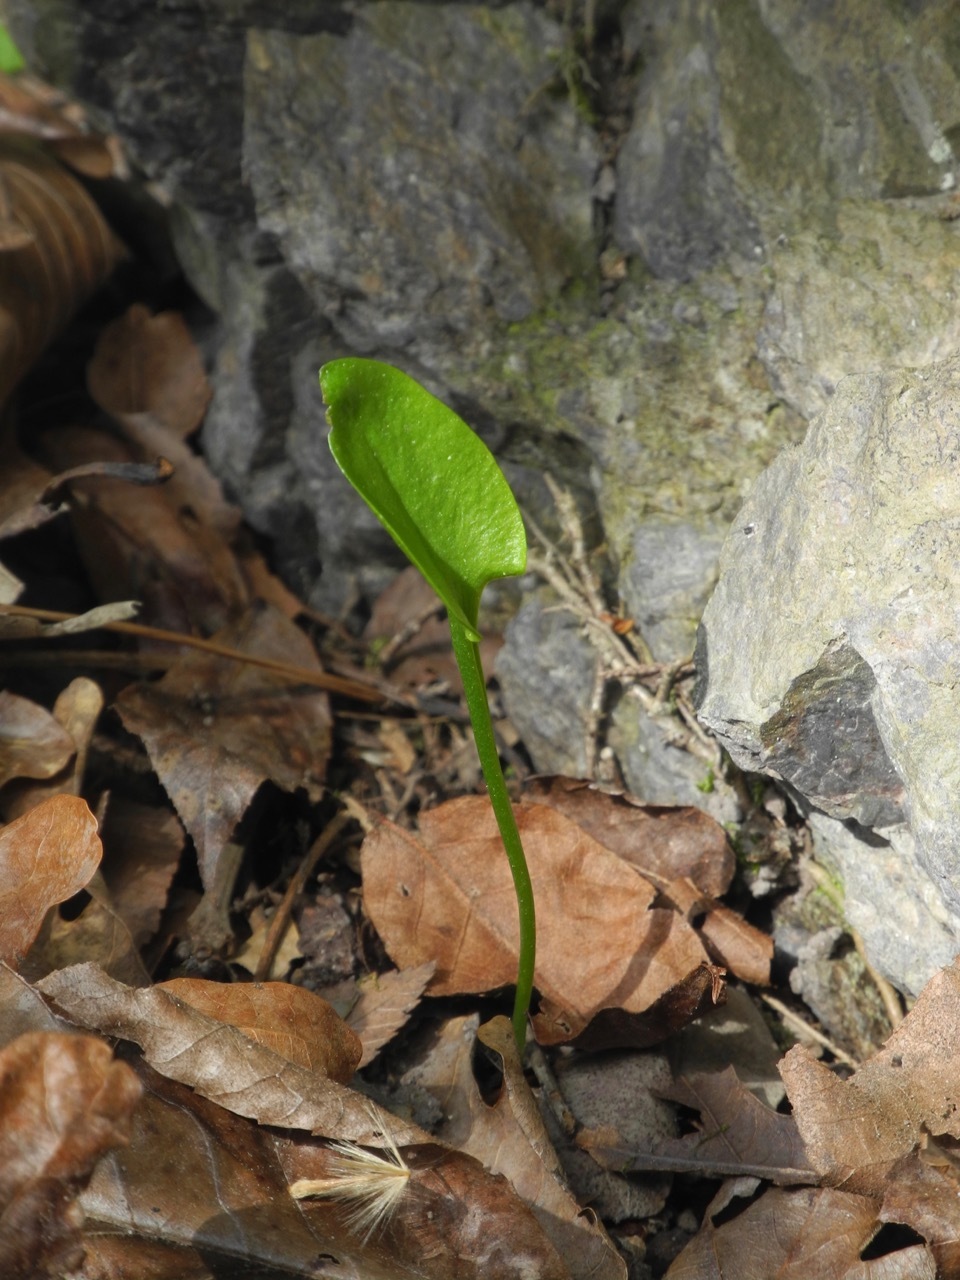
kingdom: Plantae
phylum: Tracheophyta
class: Polypodiopsida
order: Ophioglossales
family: Ophioglossaceae
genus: Ophioglossum
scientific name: Ophioglossum vulgatum
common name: Adder's-tongue
